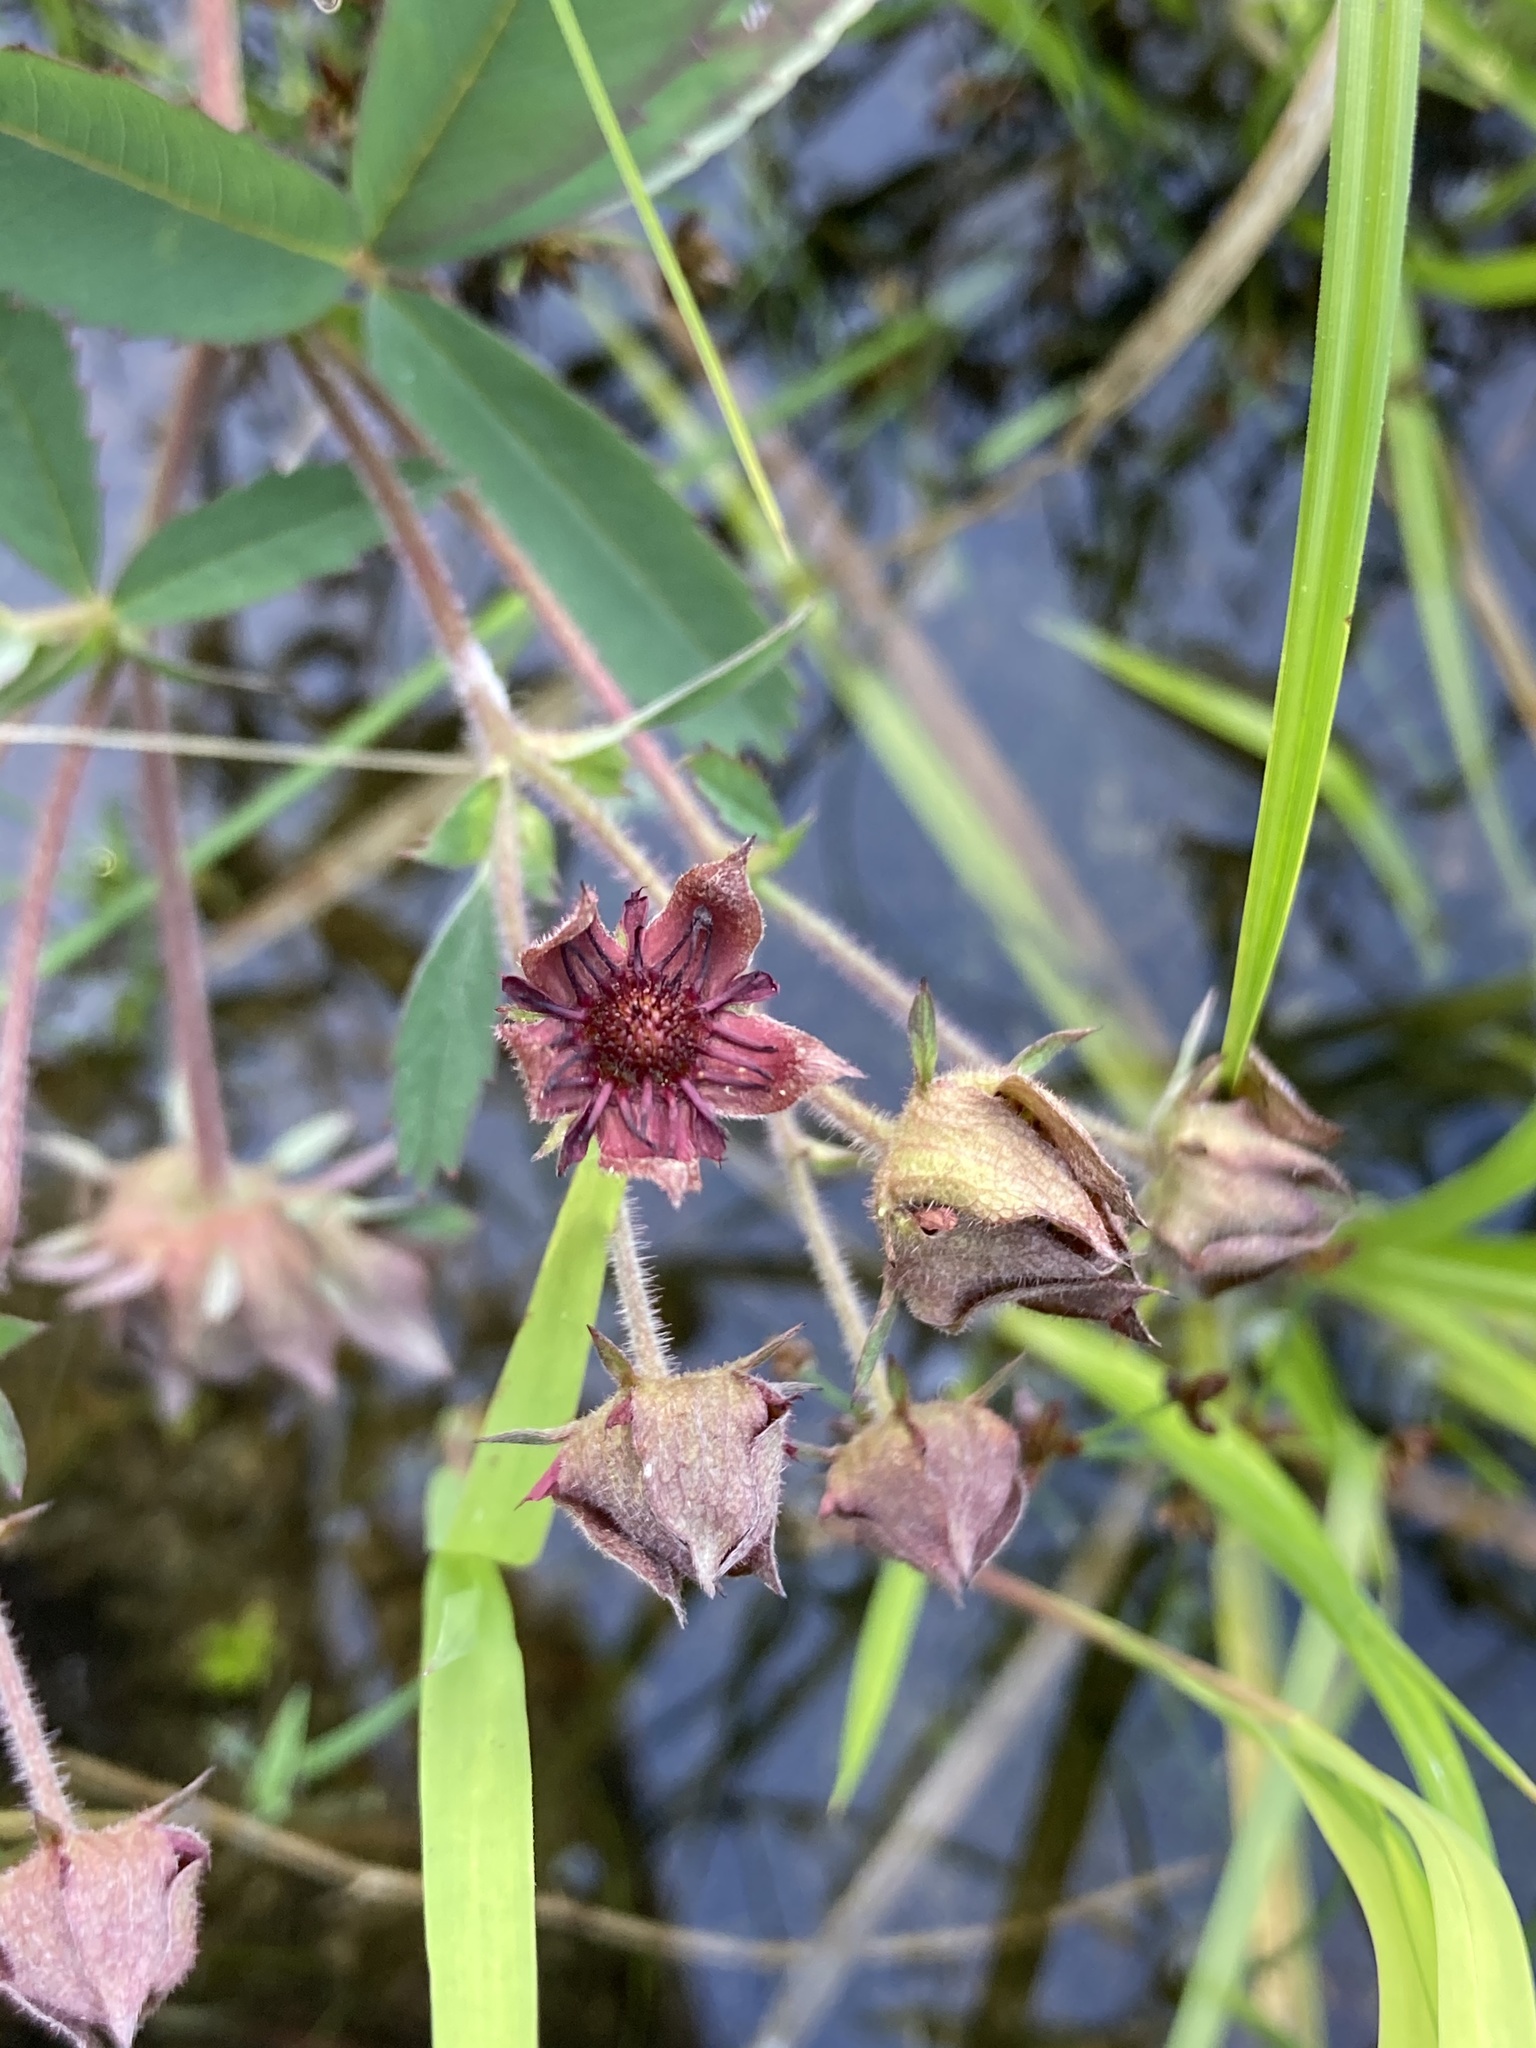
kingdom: Plantae
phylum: Tracheophyta
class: Magnoliopsida
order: Rosales
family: Rosaceae
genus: Comarum
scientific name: Comarum palustre
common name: Marsh cinquefoil
